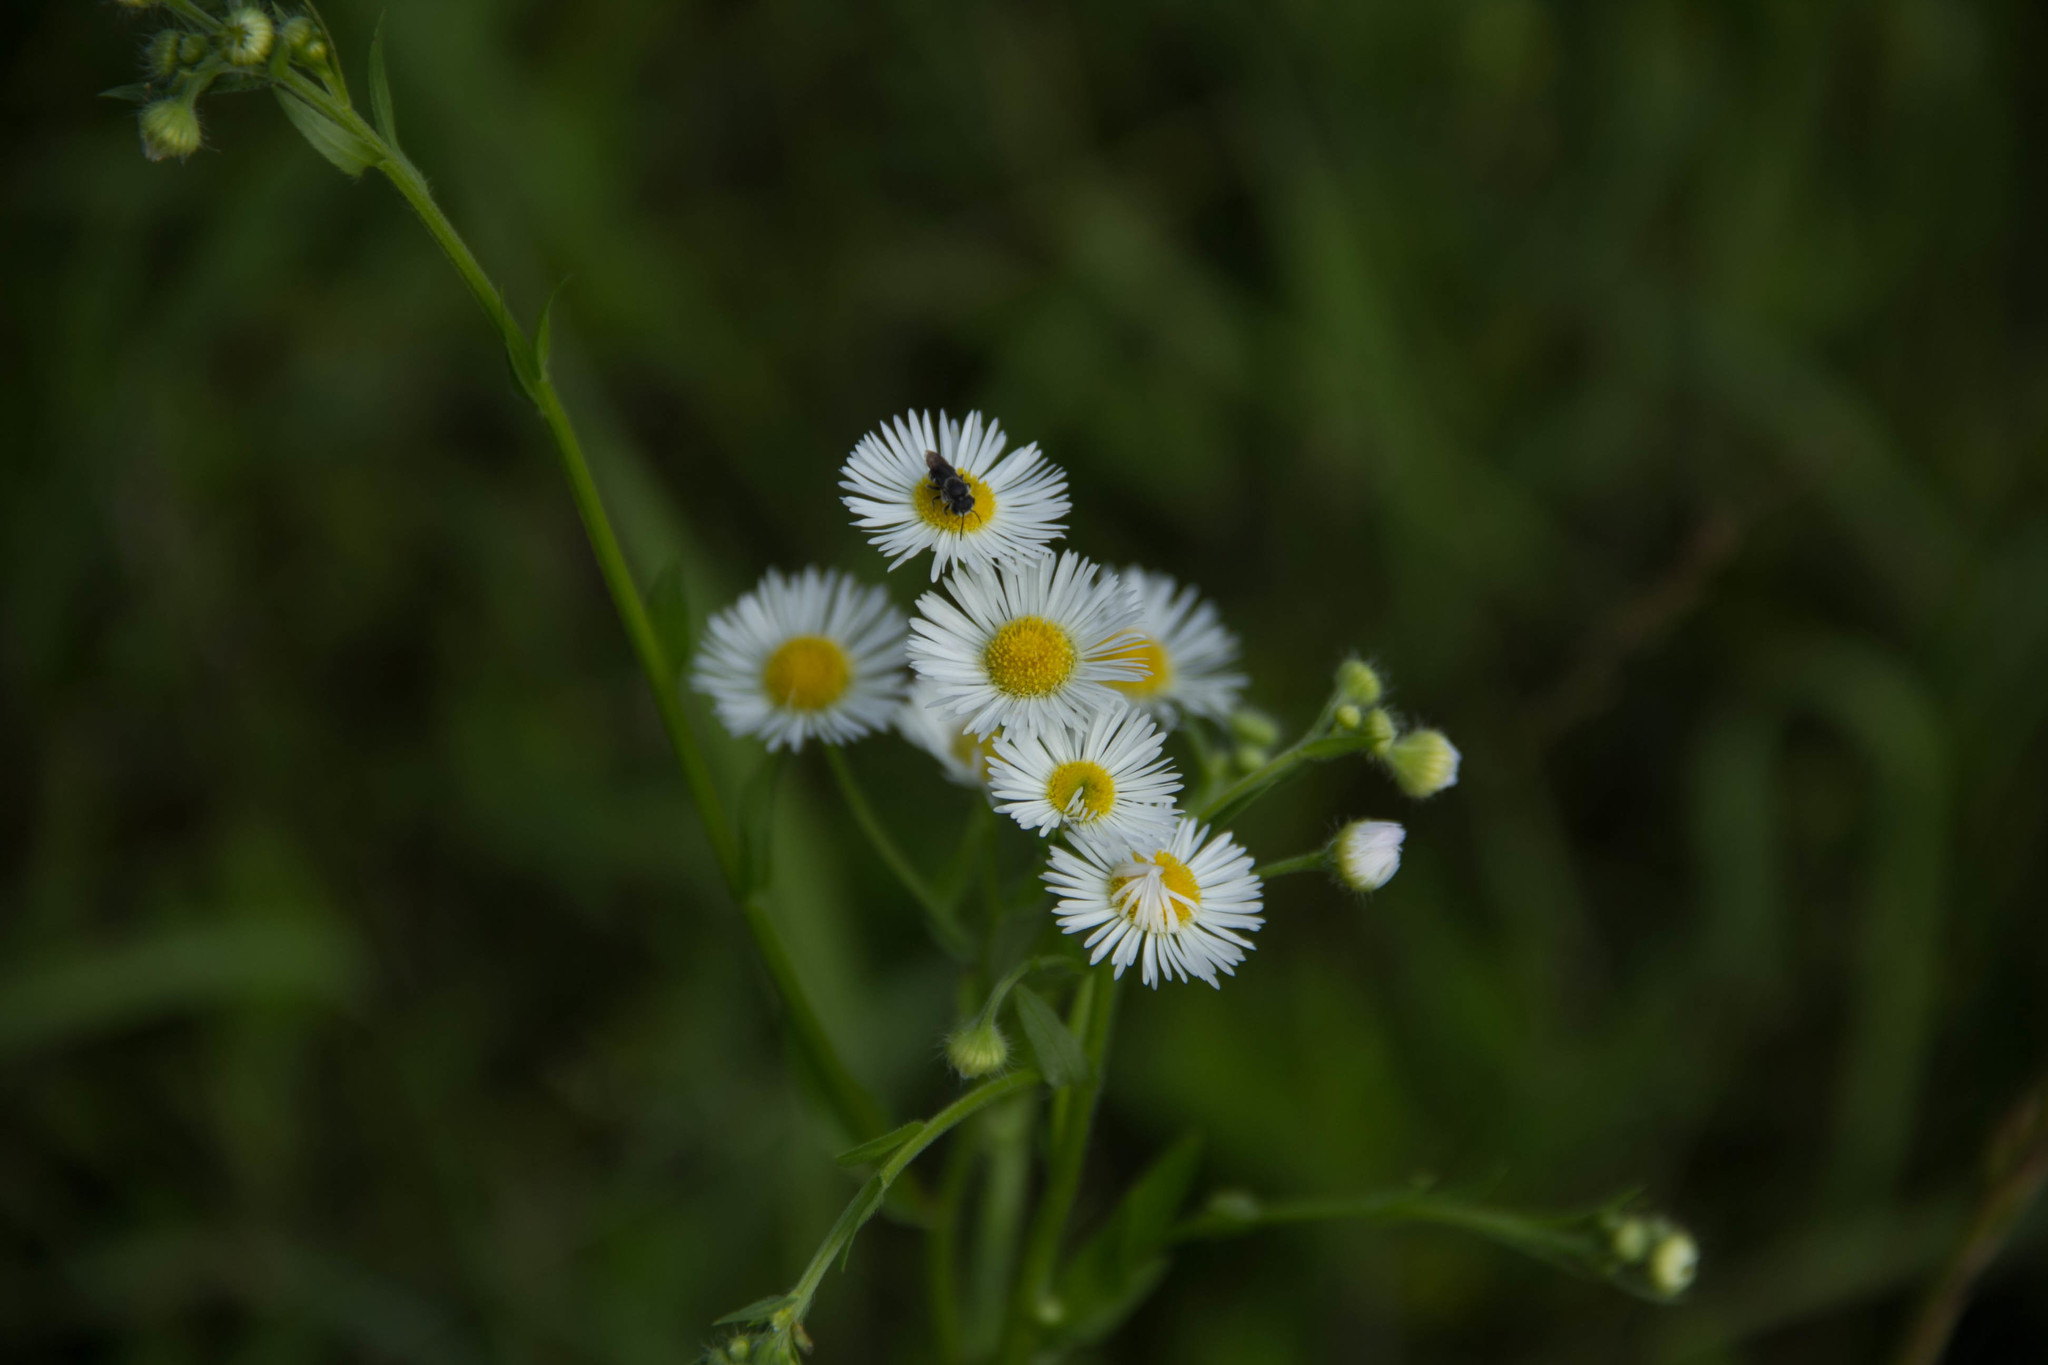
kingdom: Plantae
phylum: Tracheophyta
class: Magnoliopsida
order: Asterales
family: Asteraceae
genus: Erigeron
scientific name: Erigeron strigosus
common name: Common eastern fleabane
